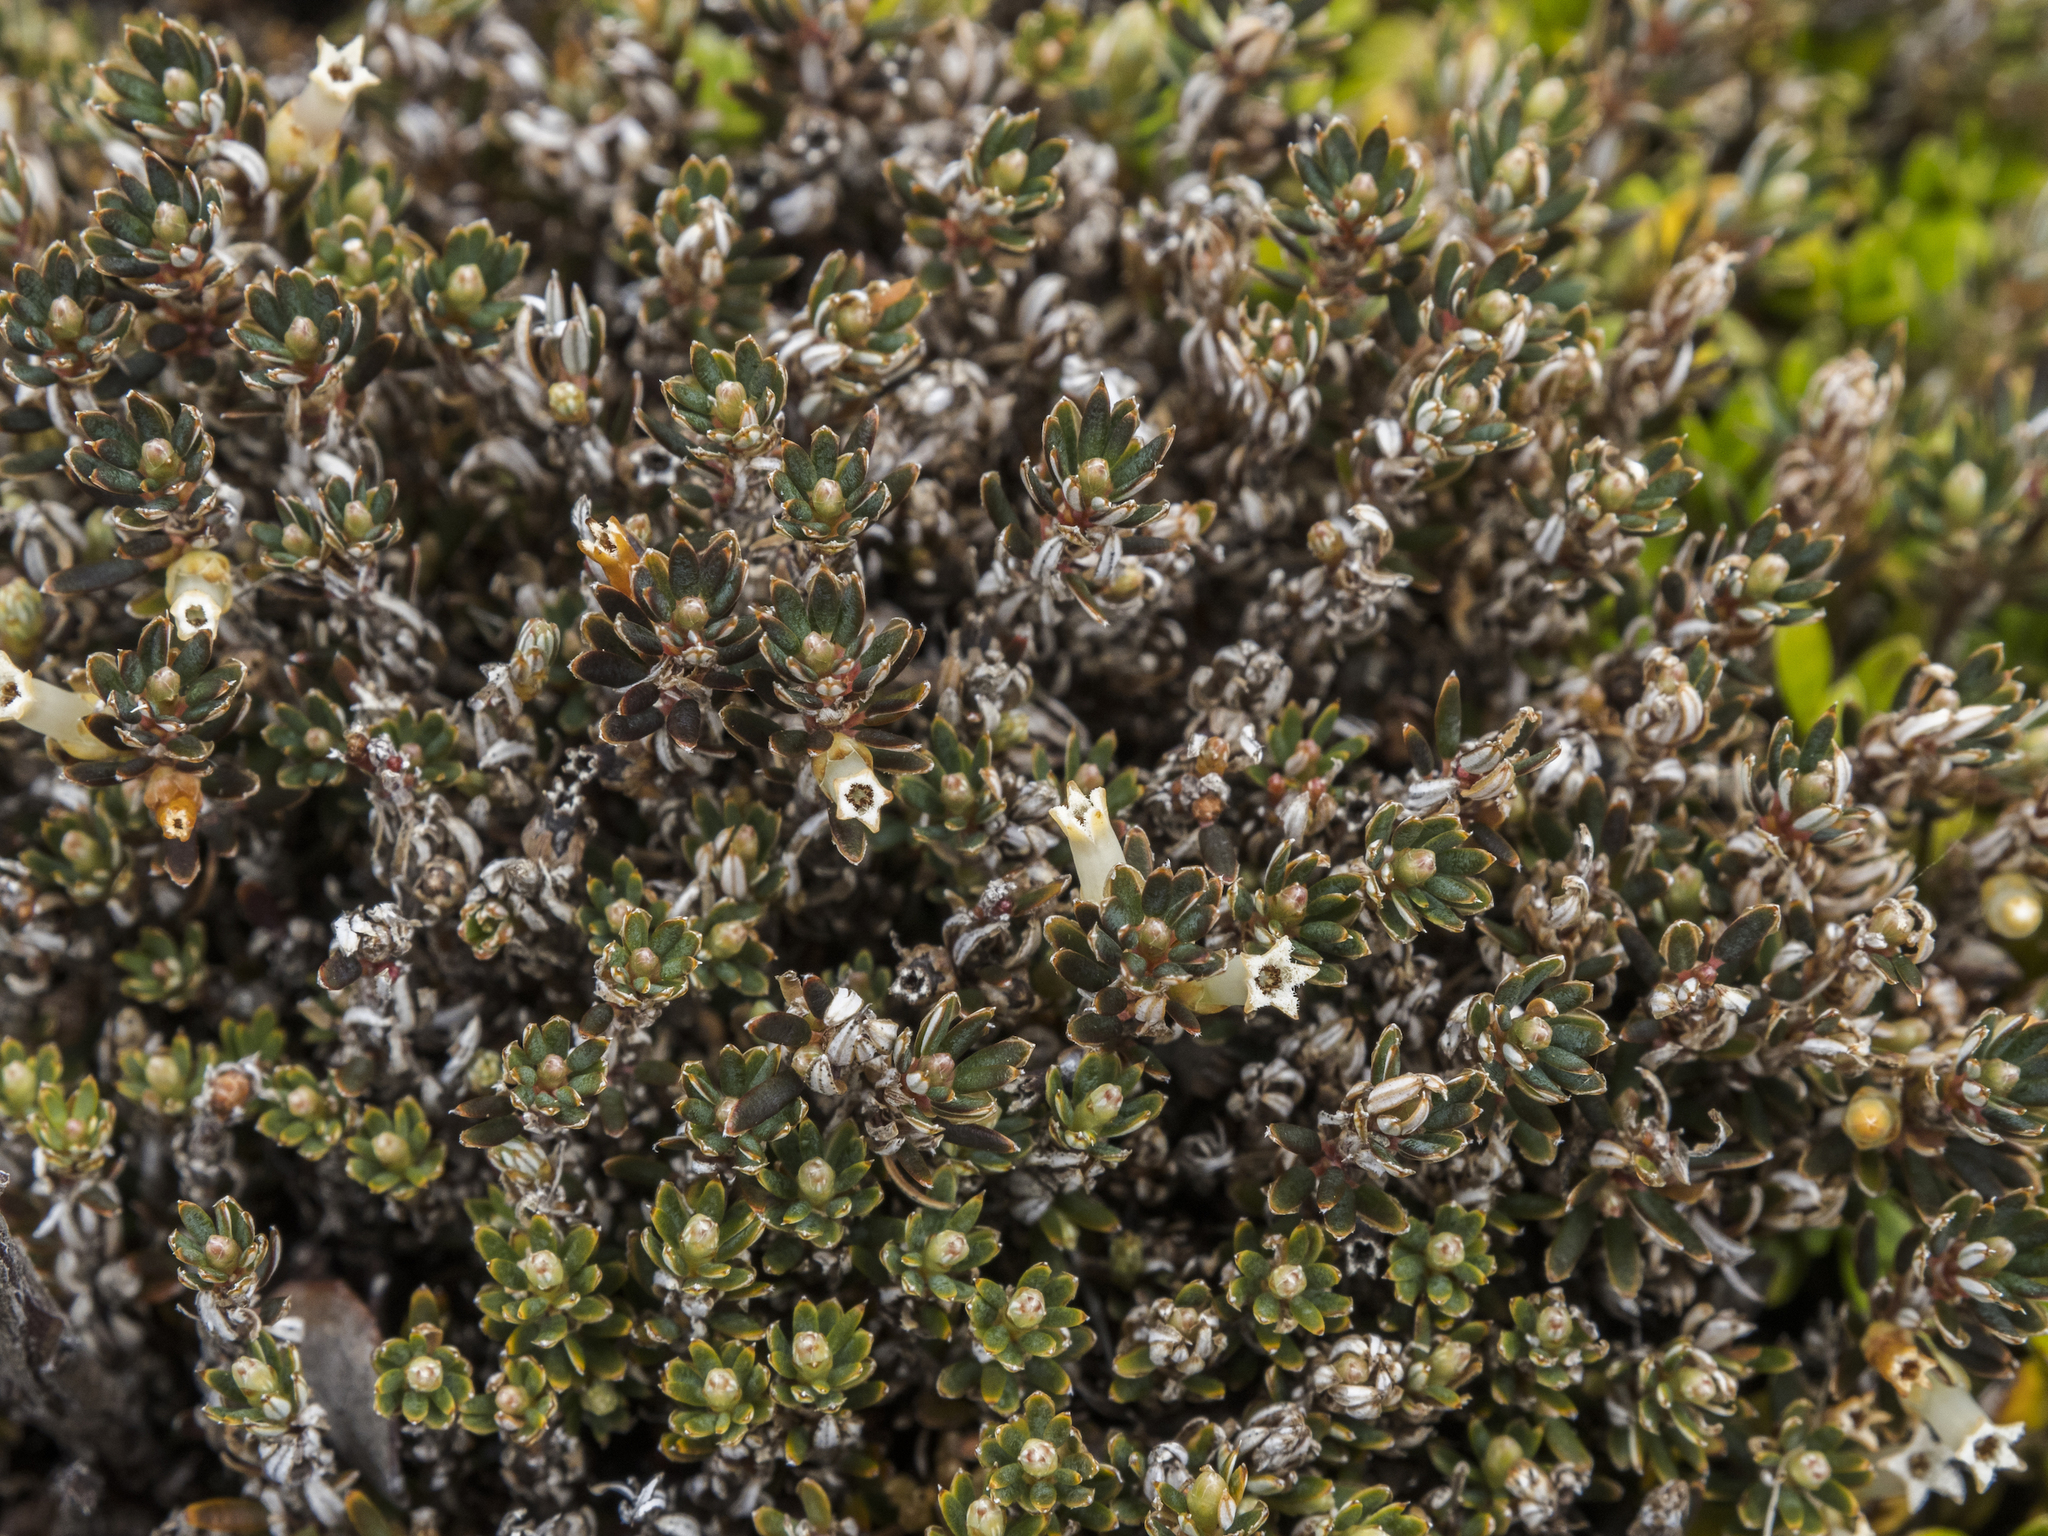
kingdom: Plantae
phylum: Tracheophyta
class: Magnoliopsida
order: Ericales
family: Ericaceae
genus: Montitega
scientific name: Montitega dealbata
